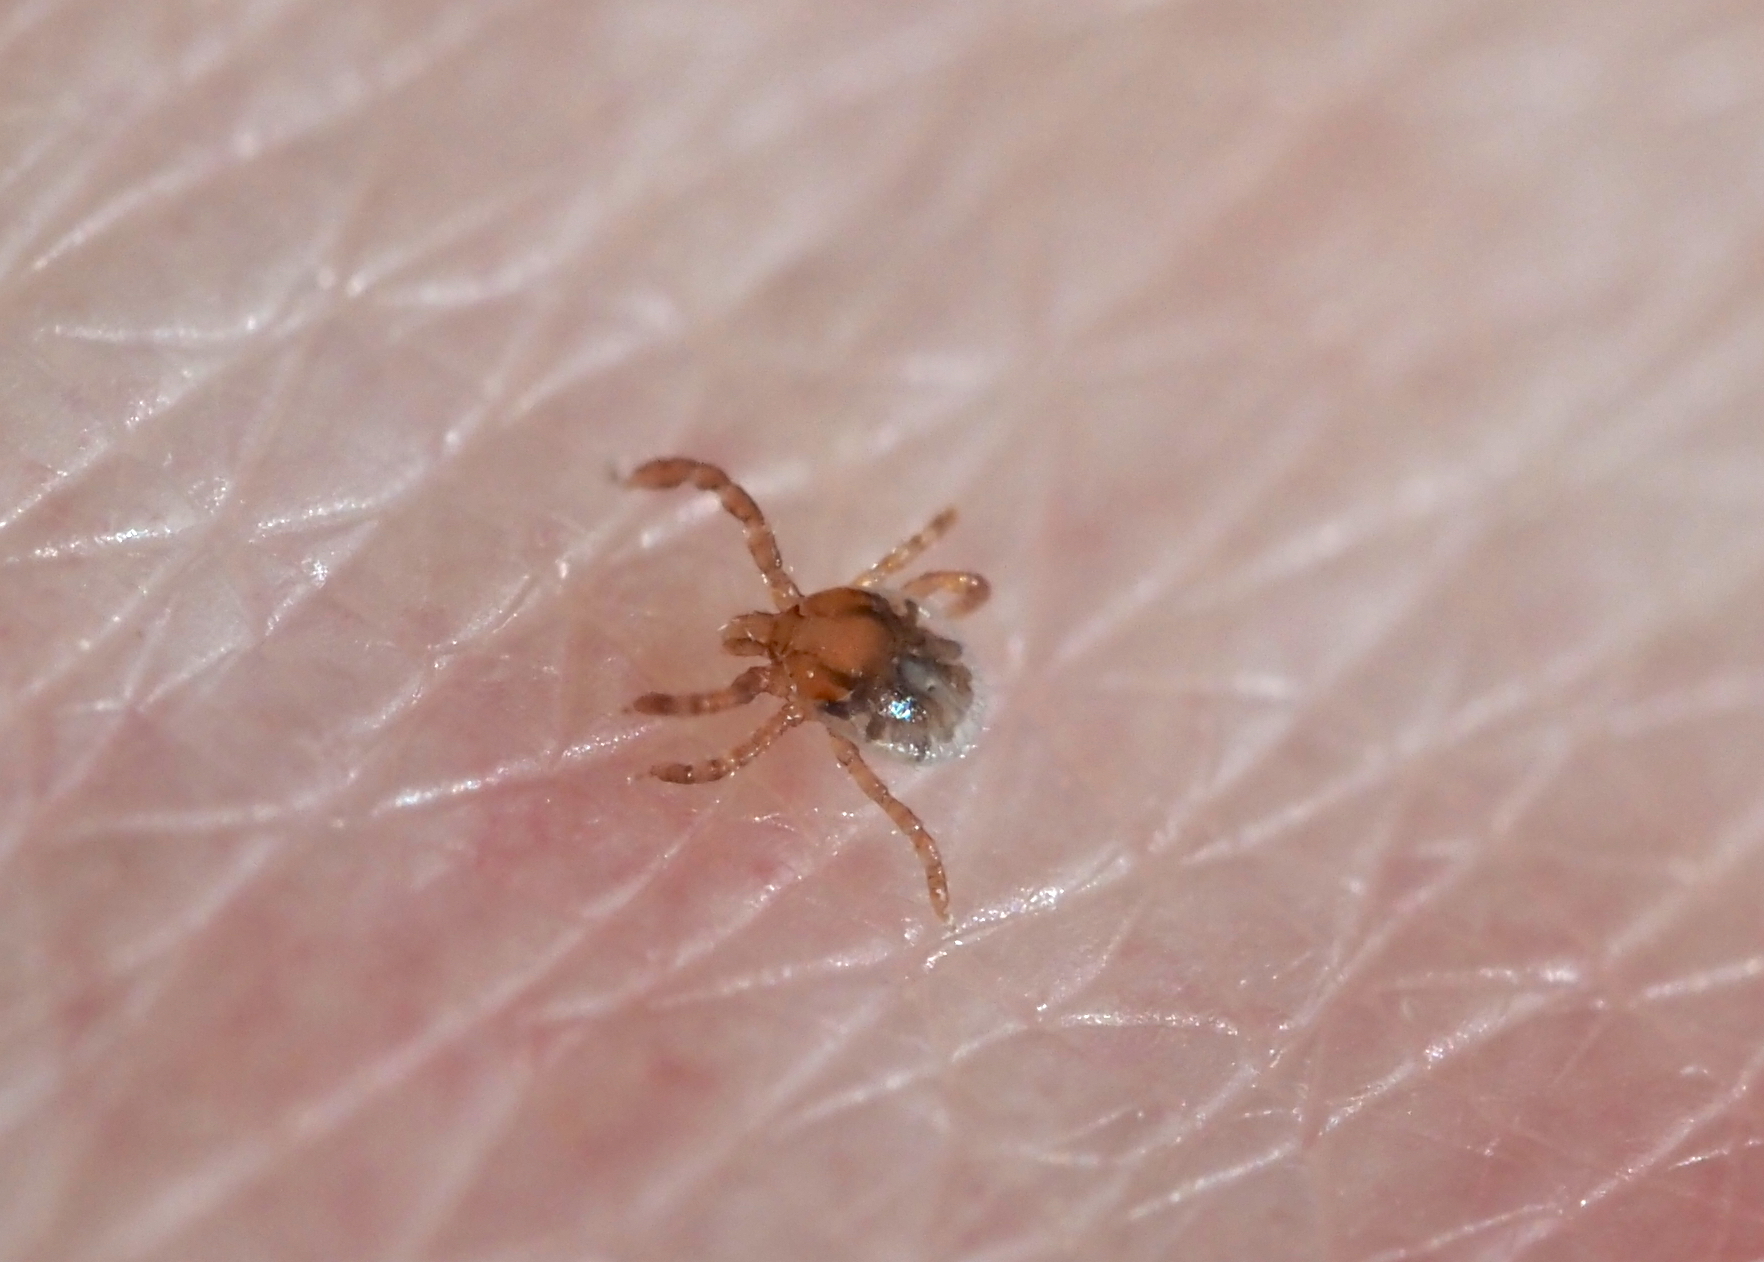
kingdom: Animalia
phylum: Arthropoda
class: Arachnida
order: Ixodida
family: Ixodidae
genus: Amblyomma
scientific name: Amblyomma americanum
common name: Lone star tick
